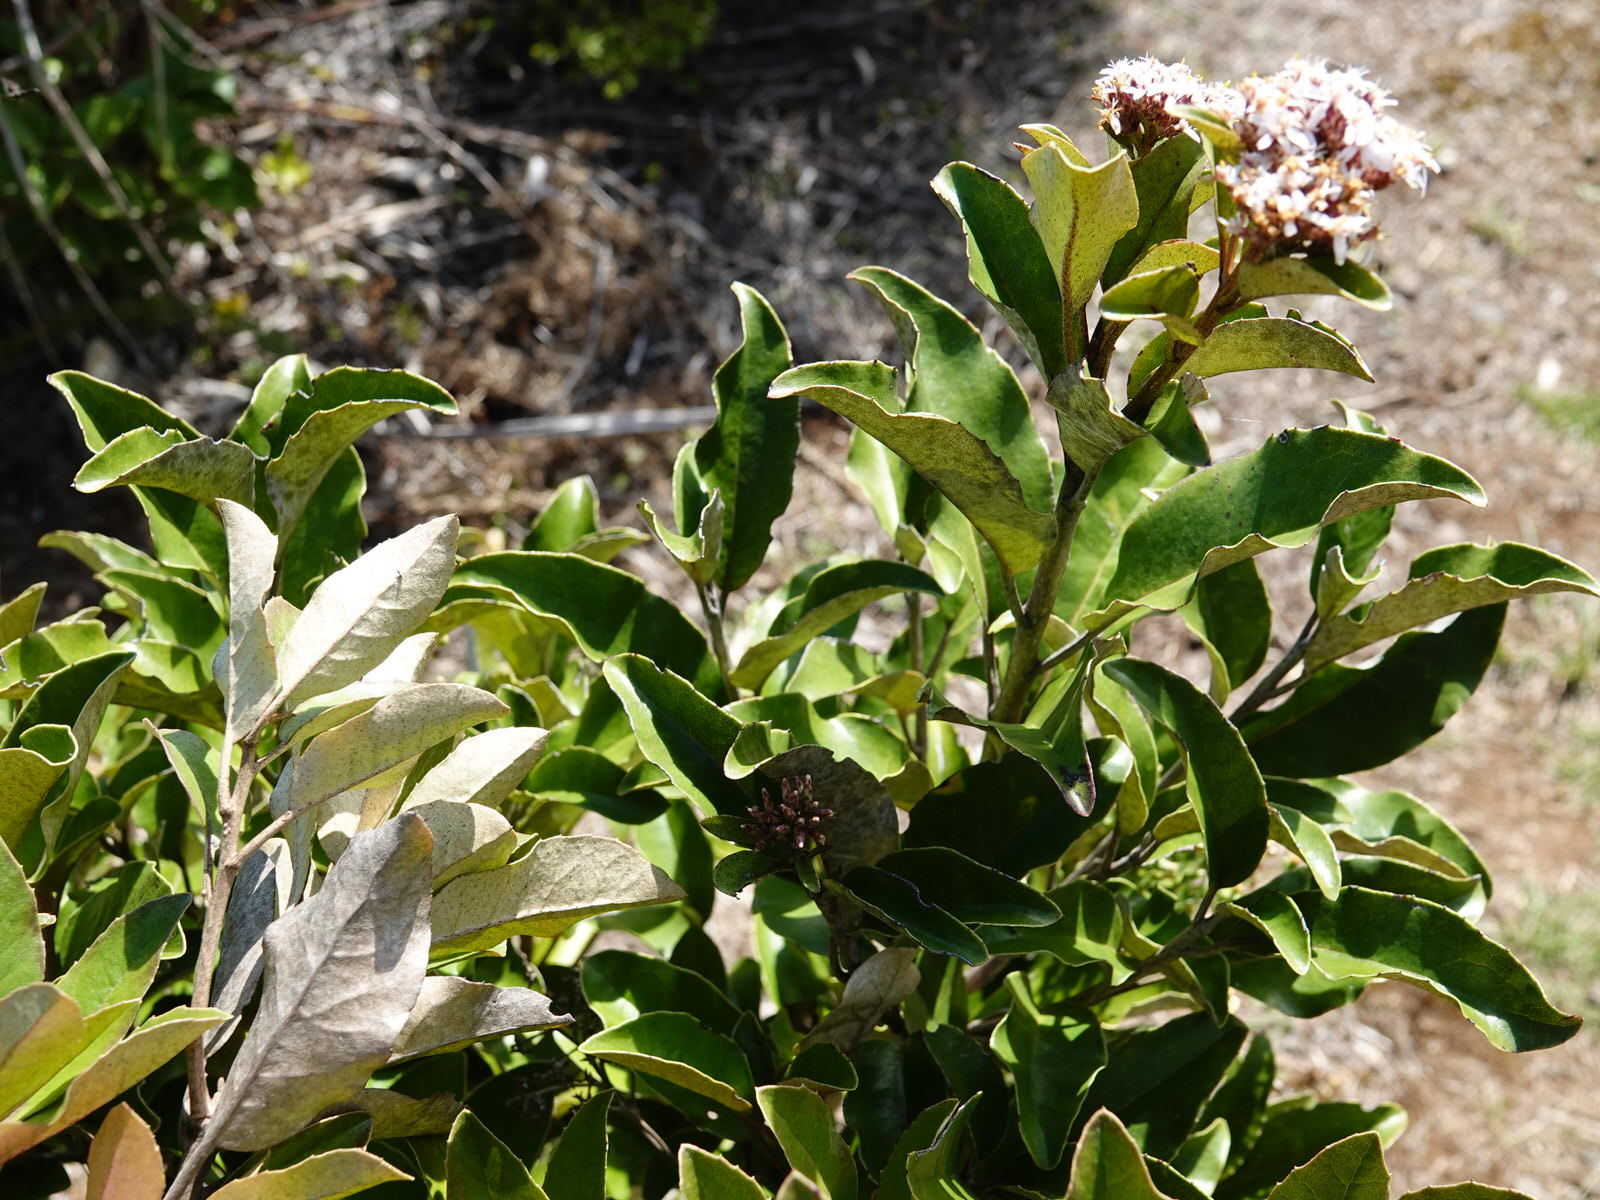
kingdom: Plantae
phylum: Tracheophyta
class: Magnoliopsida
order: Asterales
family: Asteraceae
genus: Olearia
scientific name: Olearia furfuracea
